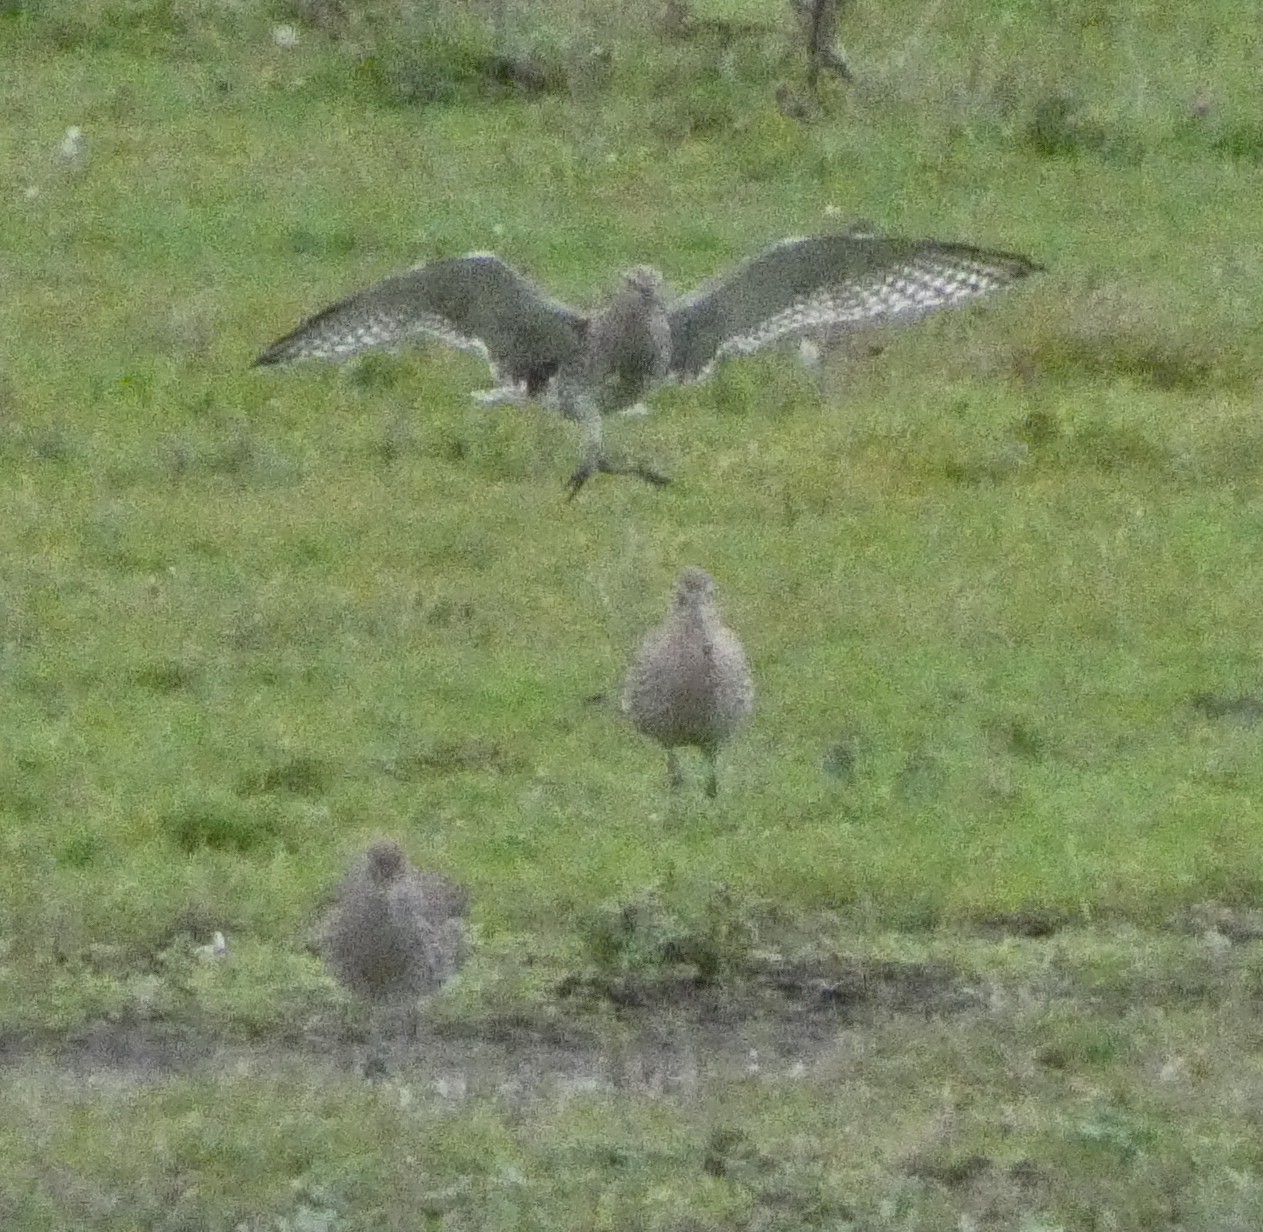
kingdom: Animalia
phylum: Chordata
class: Aves
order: Charadriiformes
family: Scolopacidae
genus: Numenius
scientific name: Numenius arquata
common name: Eurasian curlew
